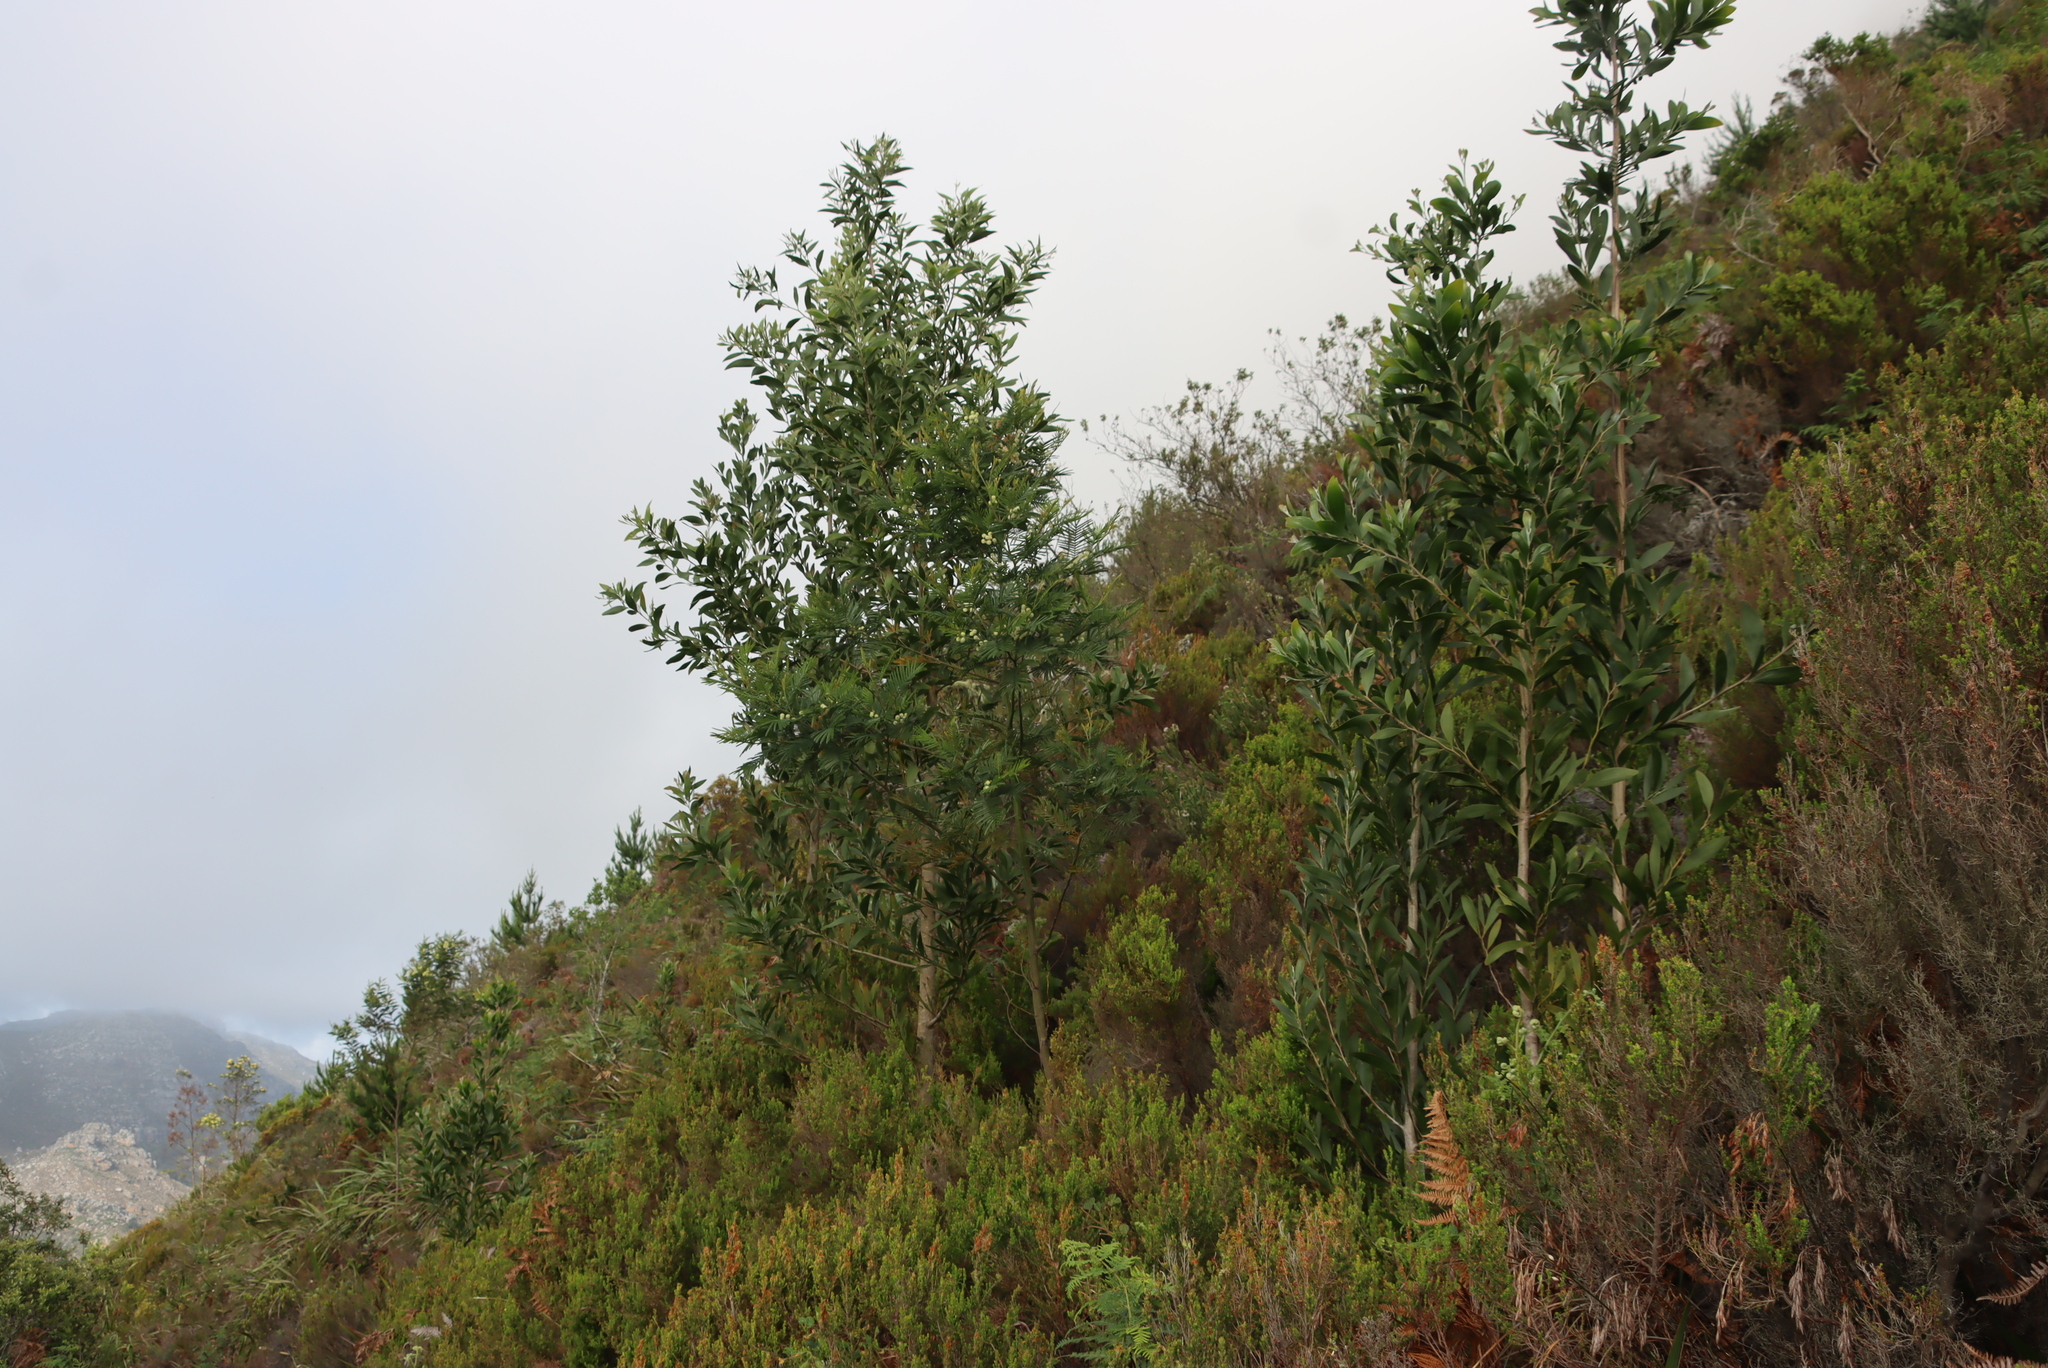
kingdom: Plantae
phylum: Tracheophyta
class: Magnoliopsida
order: Fabales
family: Fabaceae
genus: Acacia
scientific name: Acacia melanoxylon
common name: Blackwood
